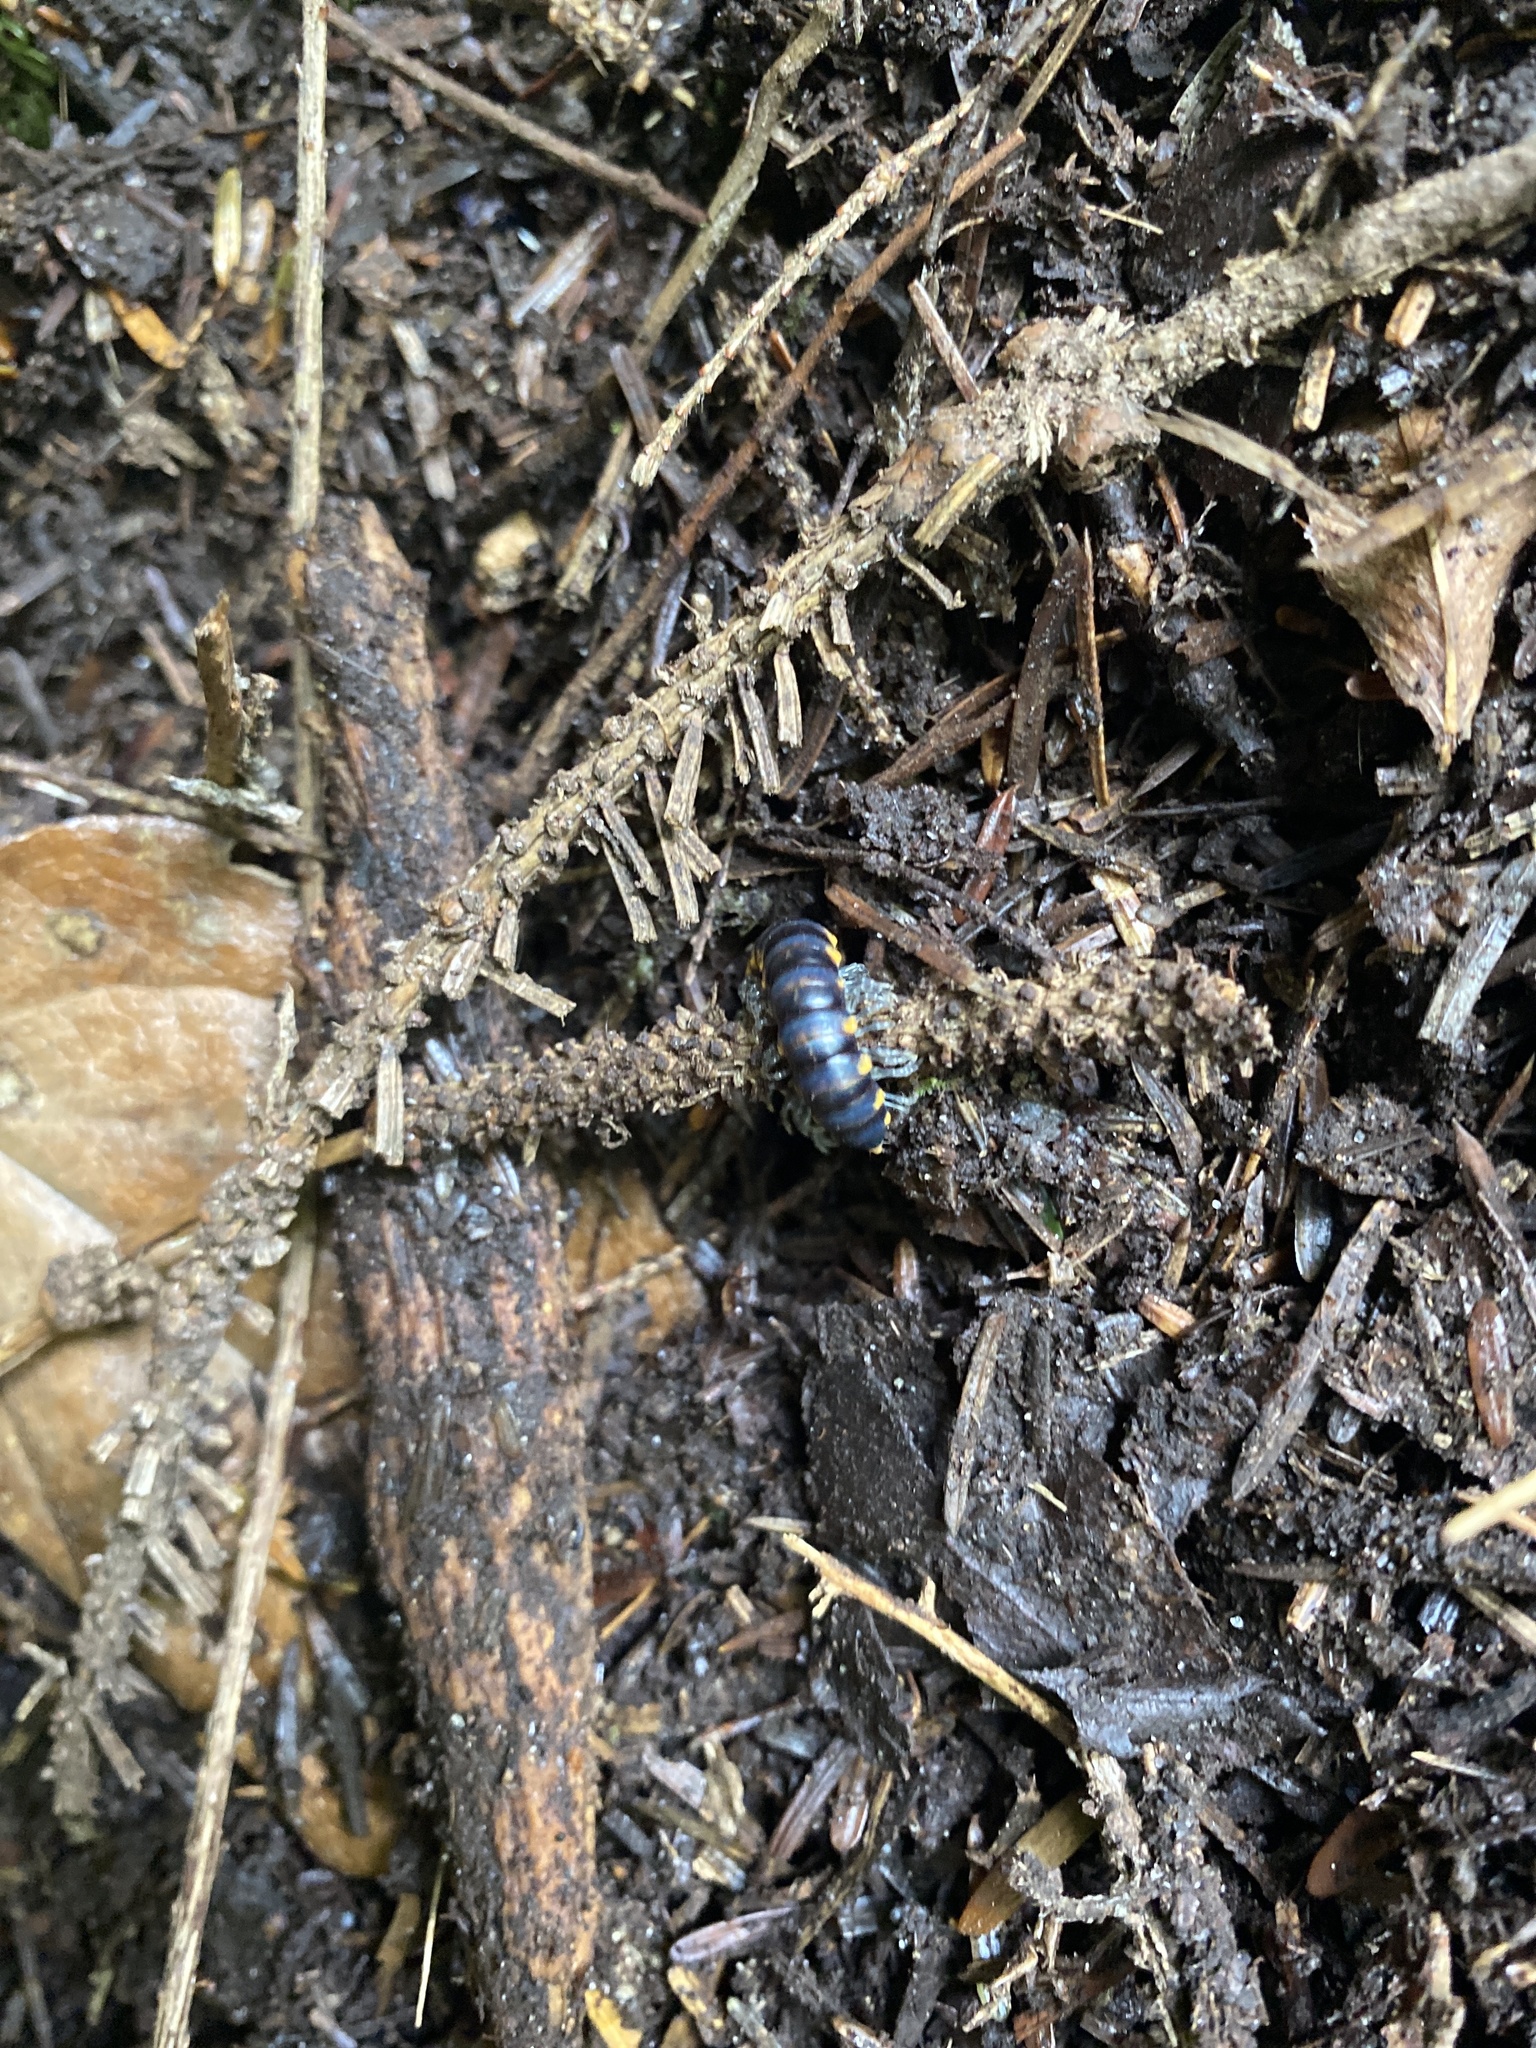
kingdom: Animalia
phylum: Arthropoda
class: Diplopoda
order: Polydesmida
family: Xystodesmidae
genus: Harpaphe
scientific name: Harpaphe haydeniana
